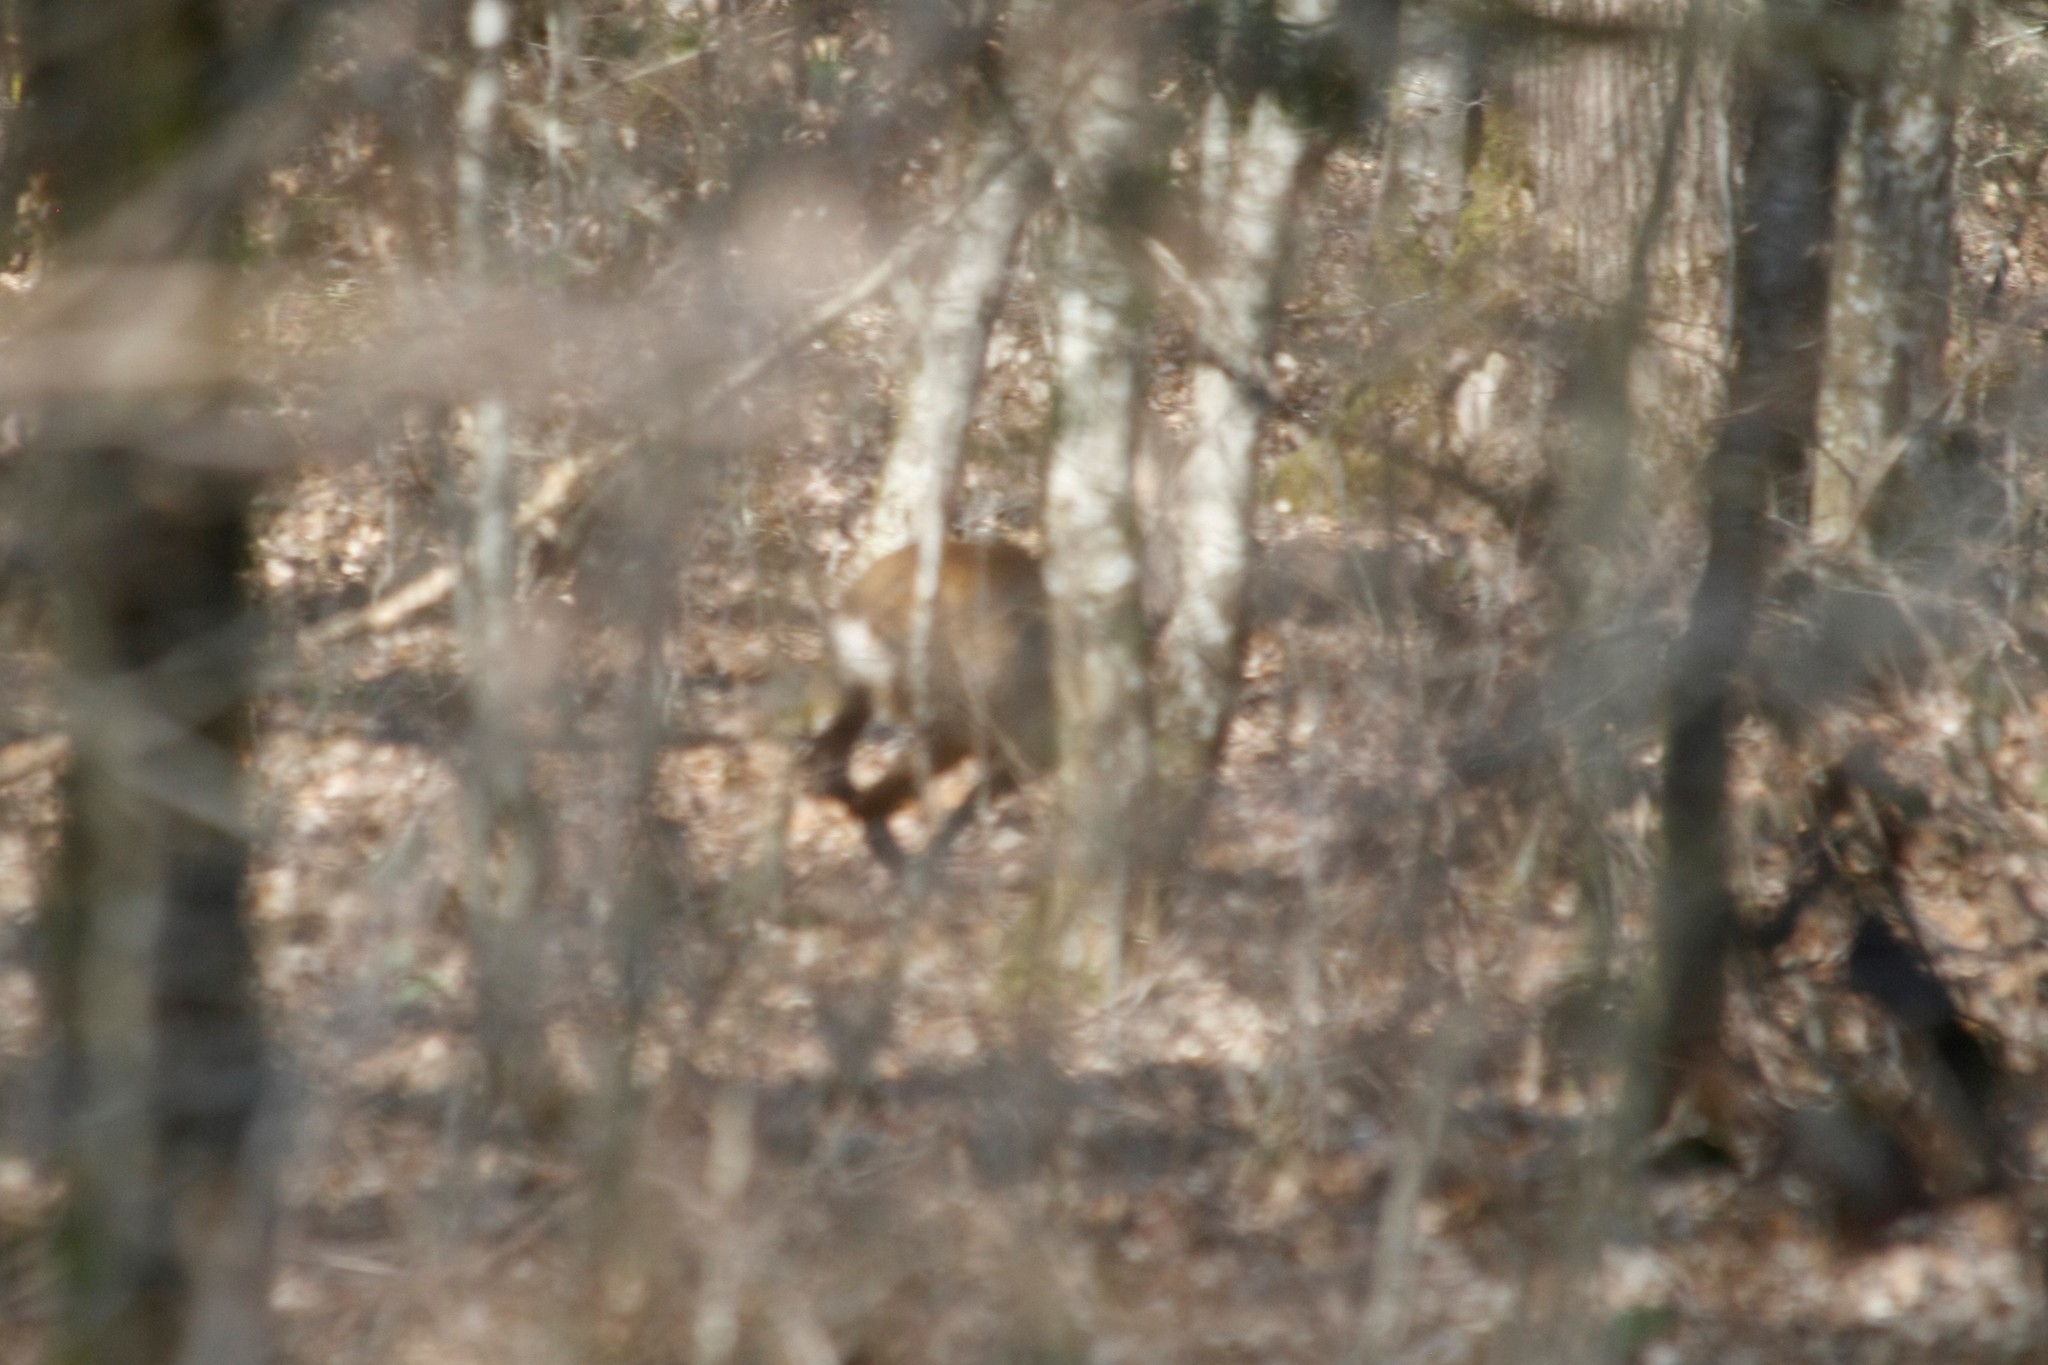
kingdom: Animalia
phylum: Chordata
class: Mammalia
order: Artiodactyla
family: Cervidae
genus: Capreolus
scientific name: Capreolus capreolus
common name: Western roe deer
